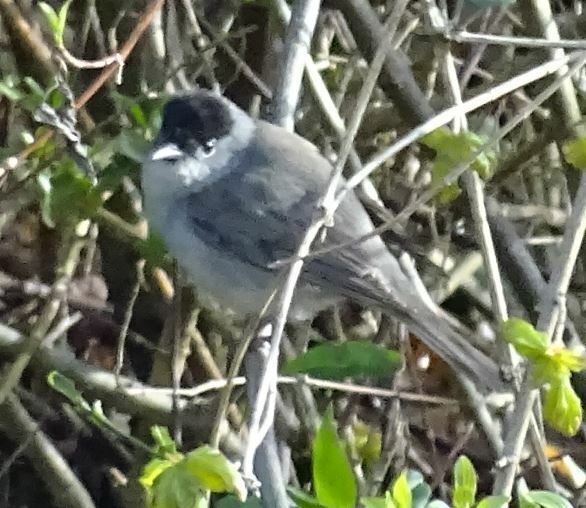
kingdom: Animalia
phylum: Chordata
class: Aves
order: Passeriformes
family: Sylviidae
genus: Sylvia
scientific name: Sylvia atricapilla
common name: Eurasian blackcap
